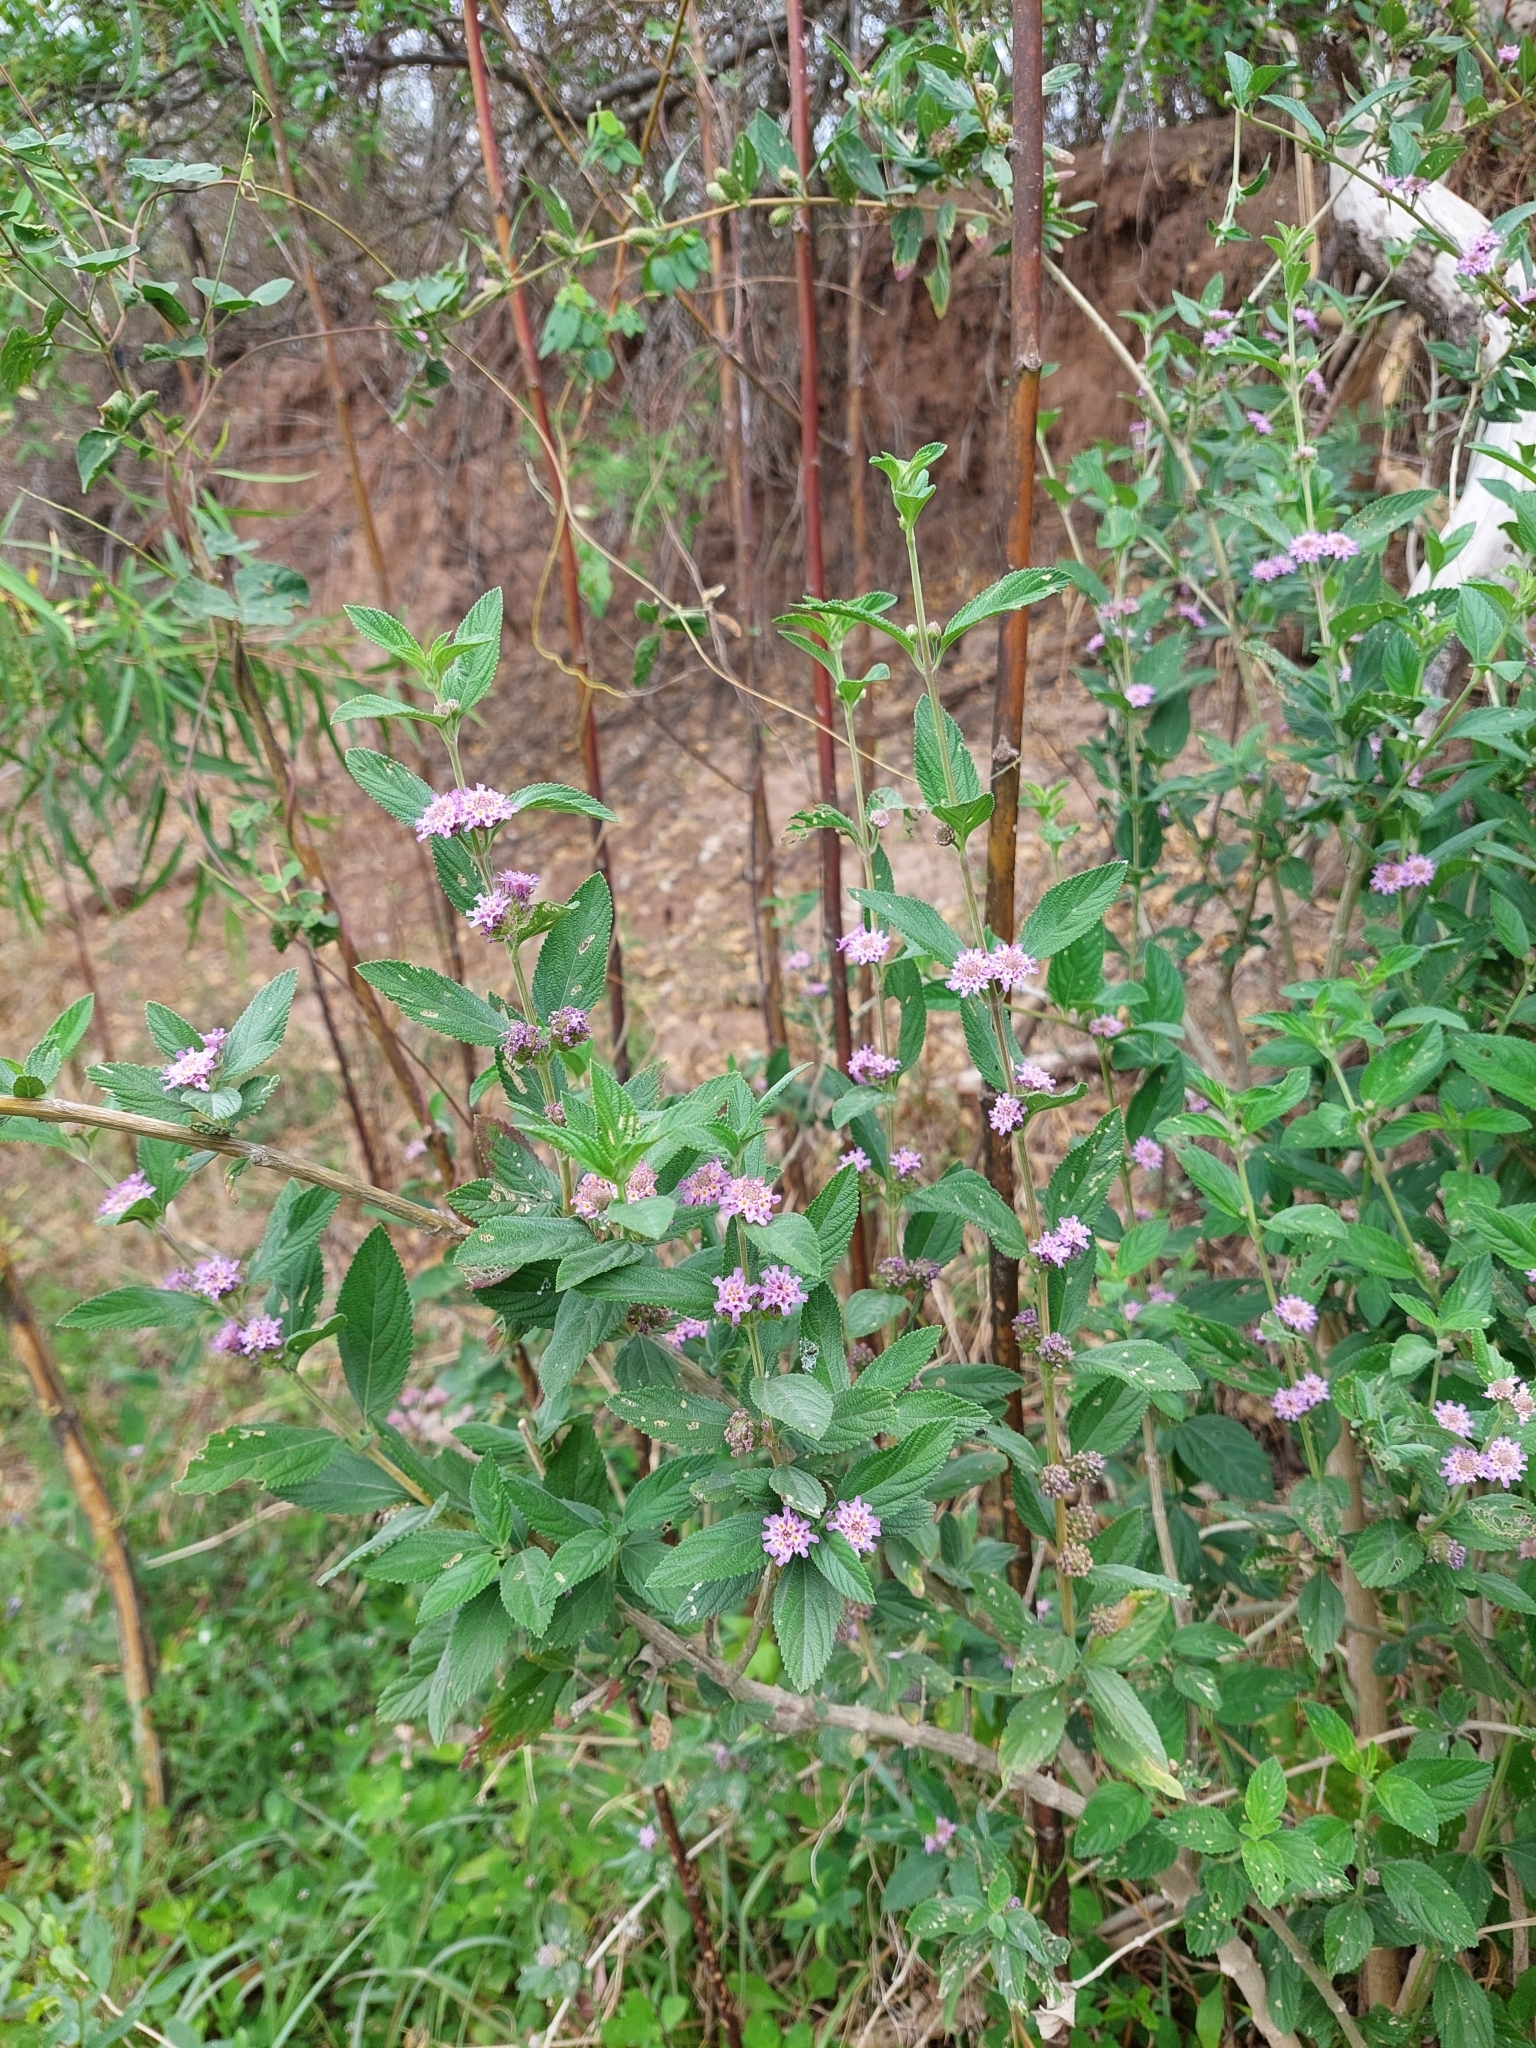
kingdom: Plantae
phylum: Tracheophyta
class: Magnoliopsida
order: Lamiales
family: Verbenaceae
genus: Lippia
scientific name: Lippia alba
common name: Bushy matgrass
